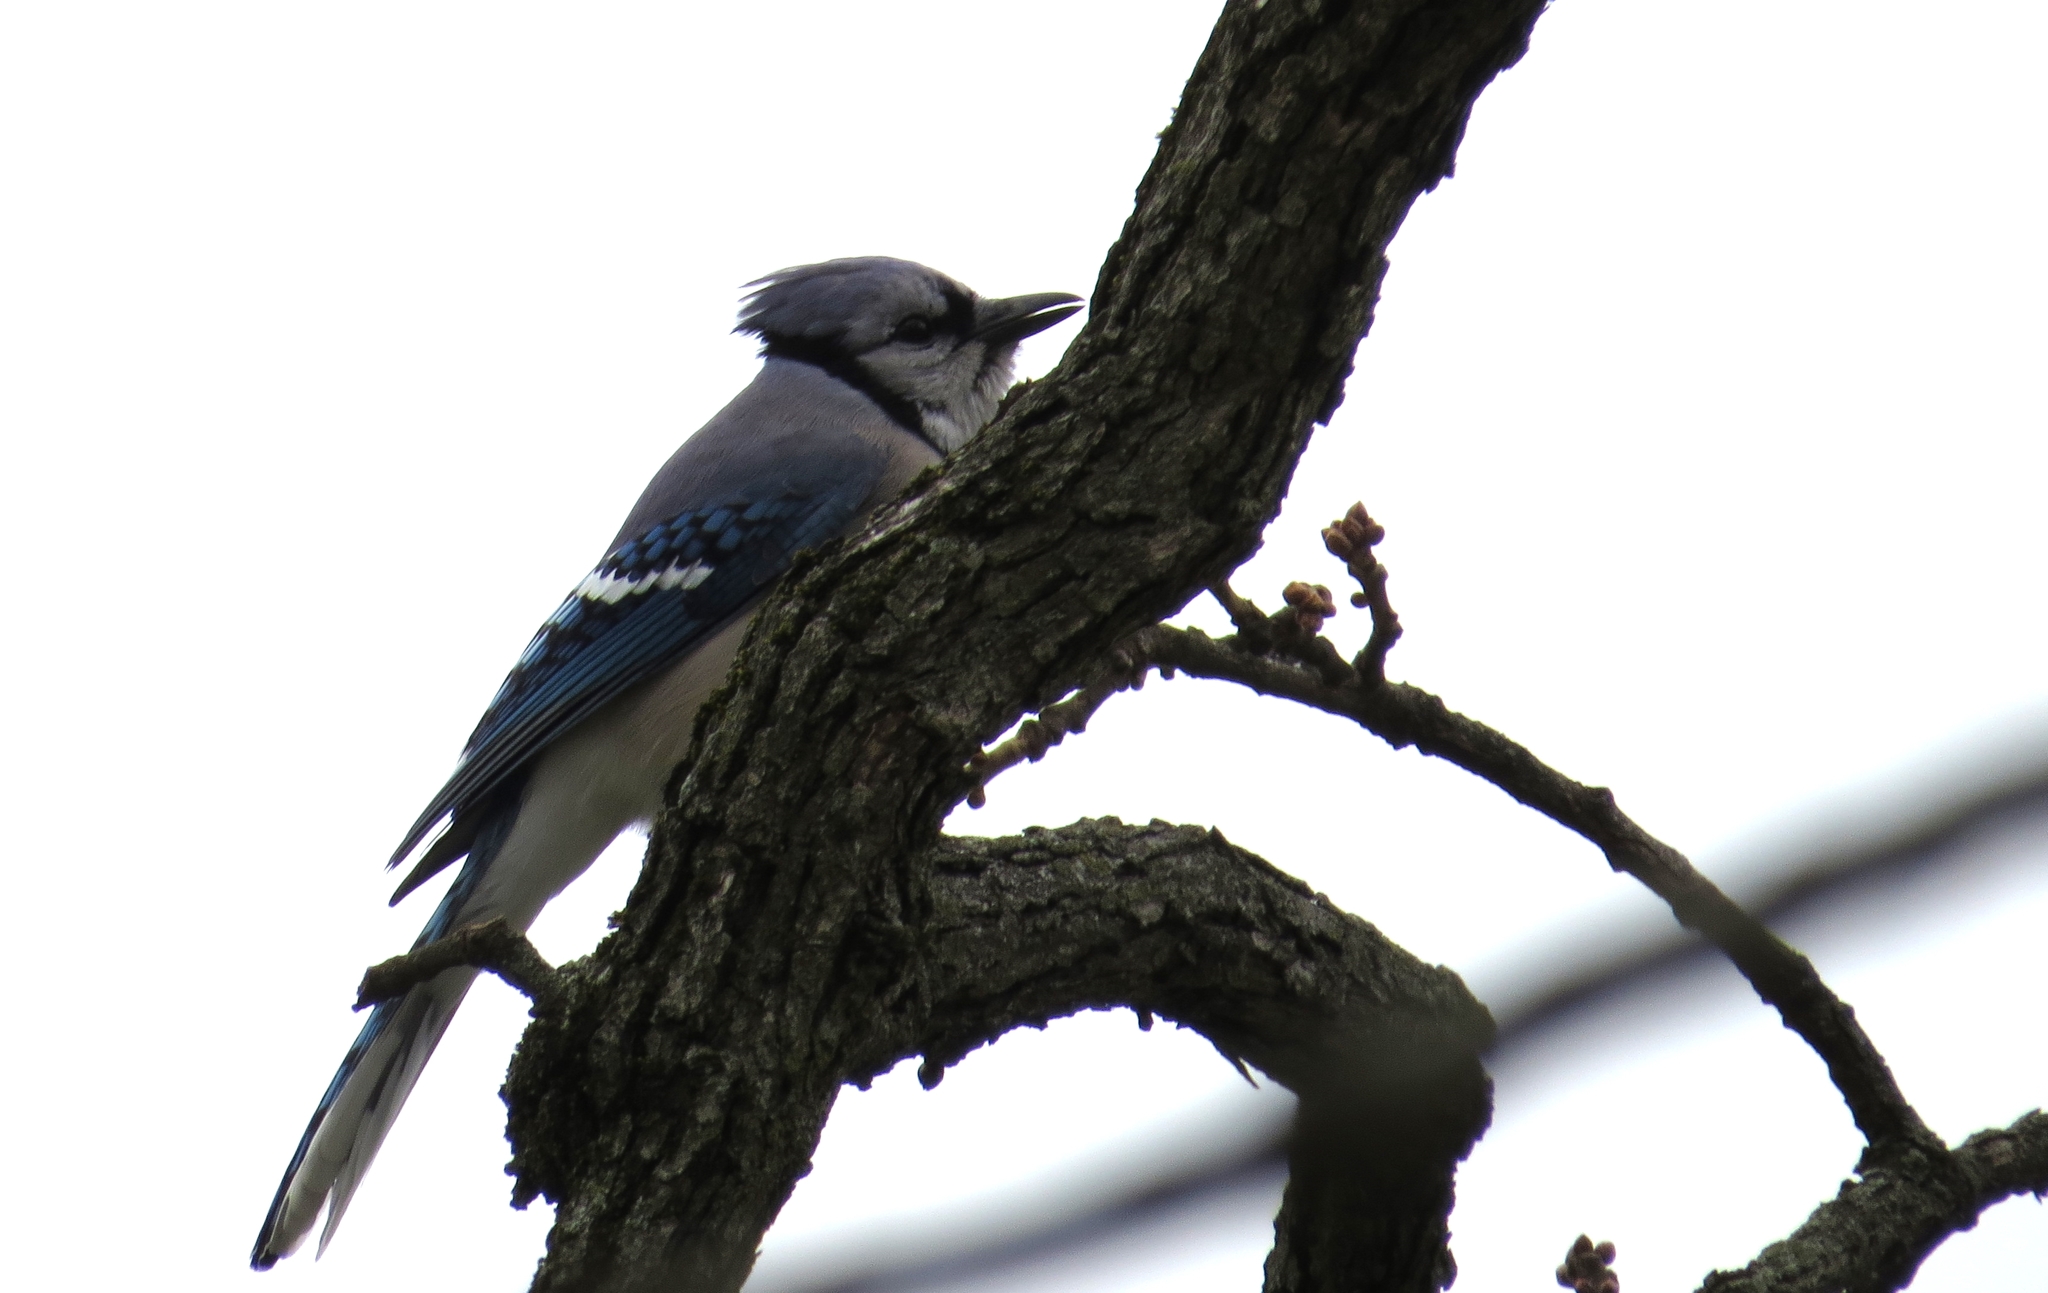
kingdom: Animalia
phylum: Chordata
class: Aves
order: Passeriformes
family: Corvidae
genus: Cyanocitta
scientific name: Cyanocitta cristata
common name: Blue jay
